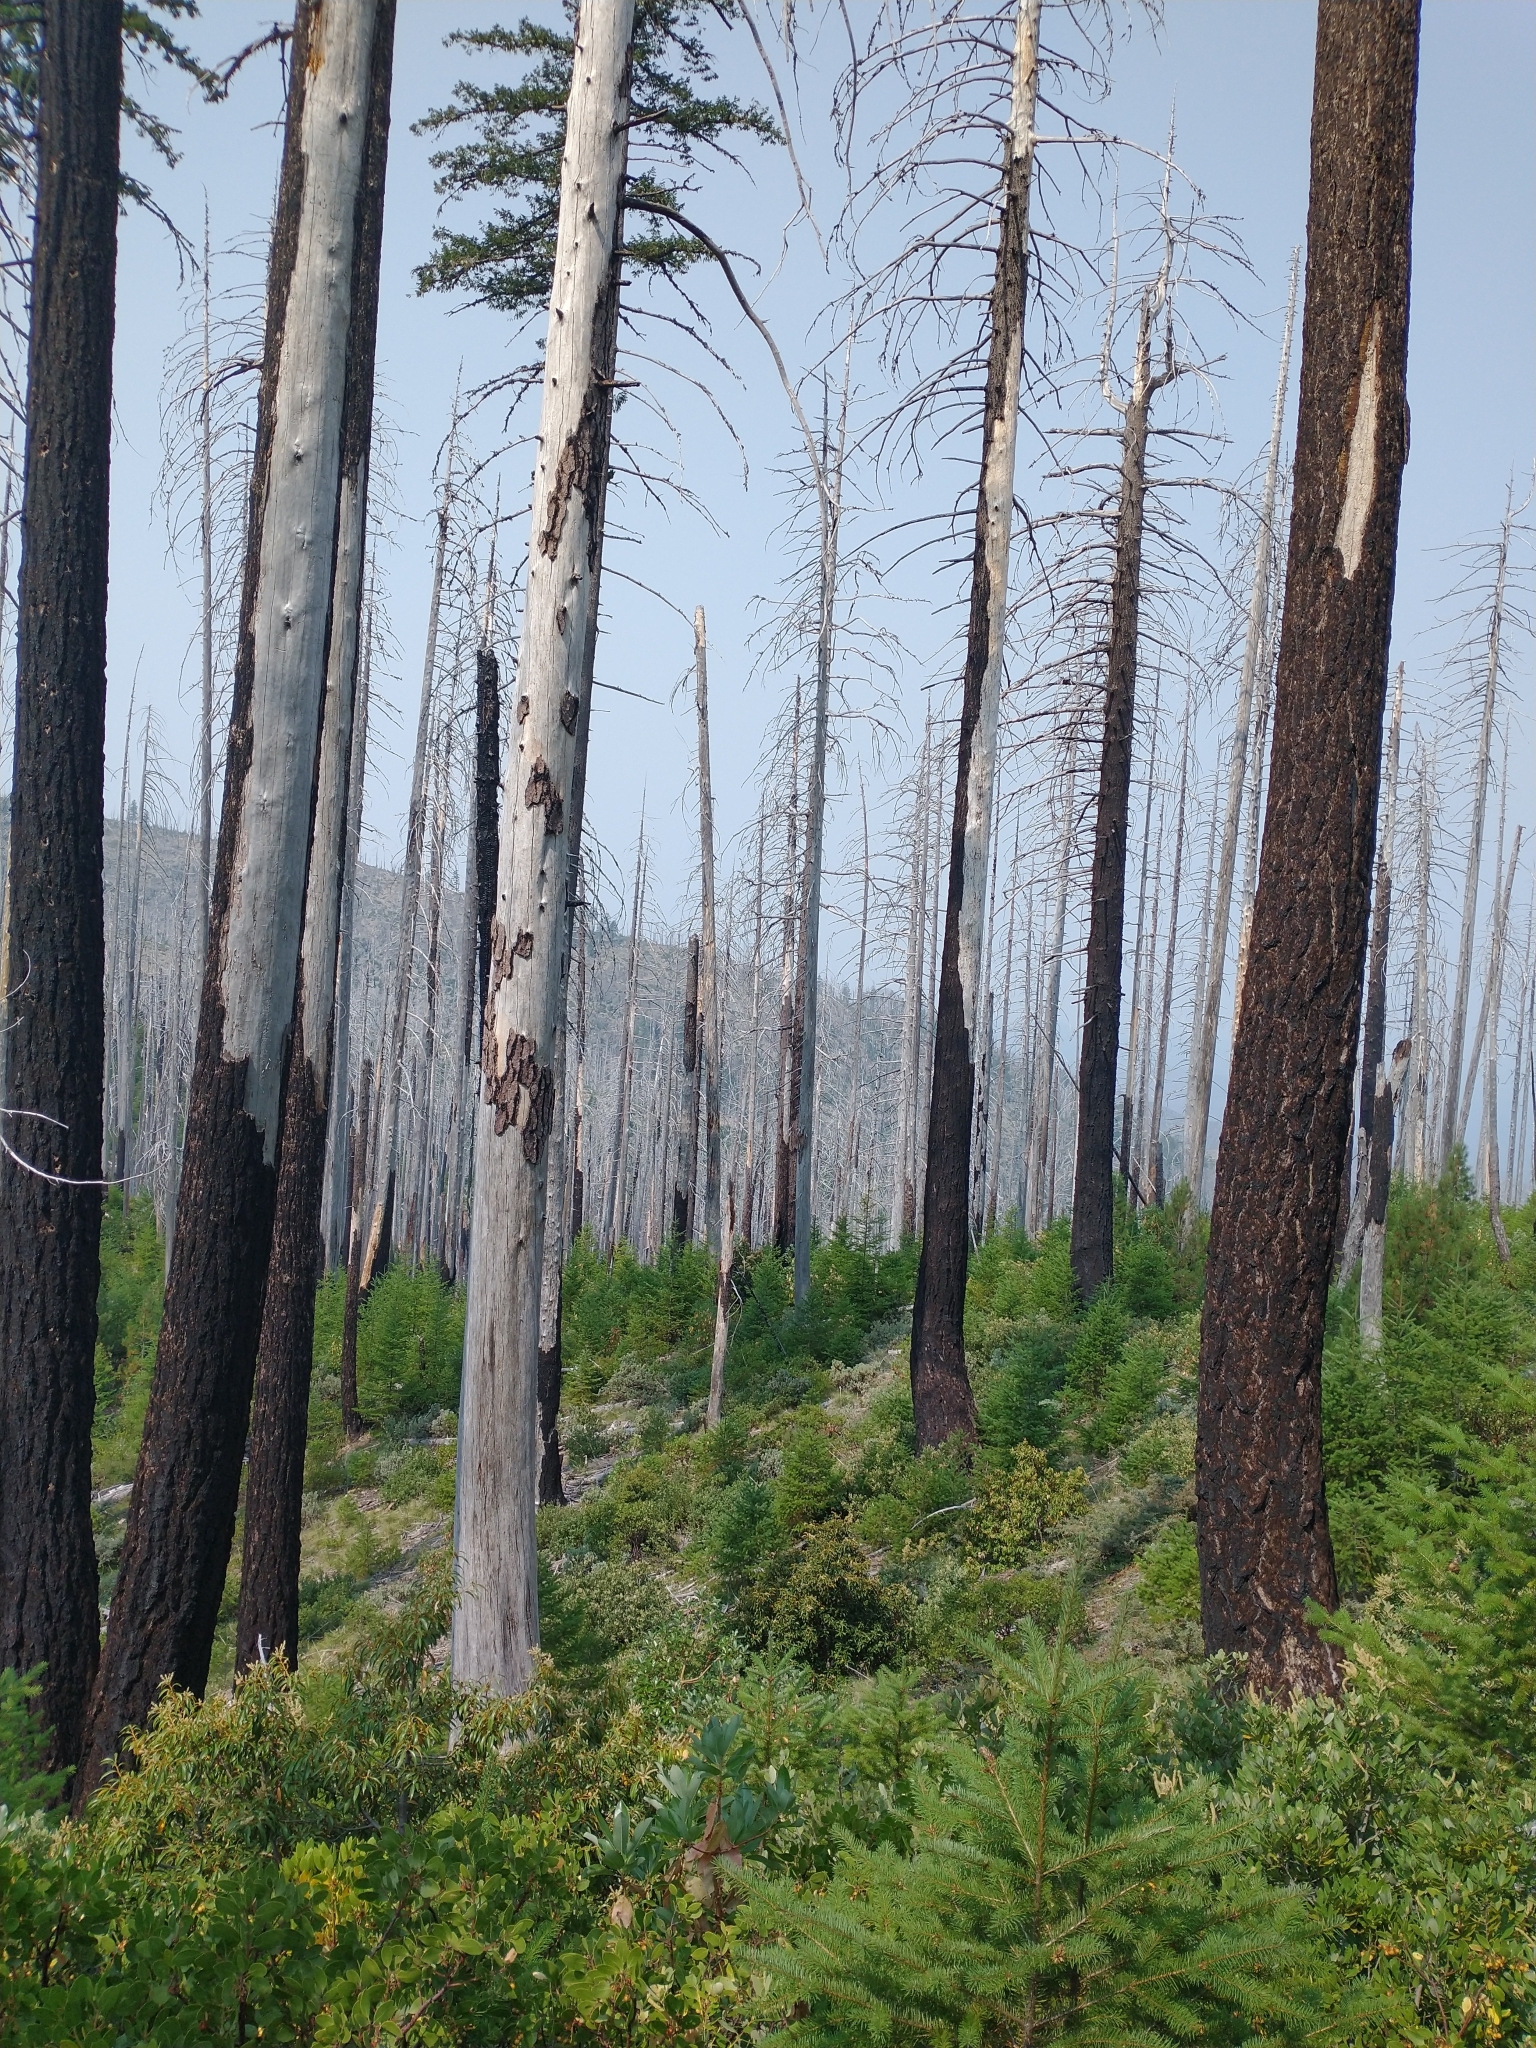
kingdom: Plantae
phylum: Tracheophyta
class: Pinopsida
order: Pinales
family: Pinaceae
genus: Pseudotsuga
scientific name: Pseudotsuga menziesii
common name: Douglas fir
